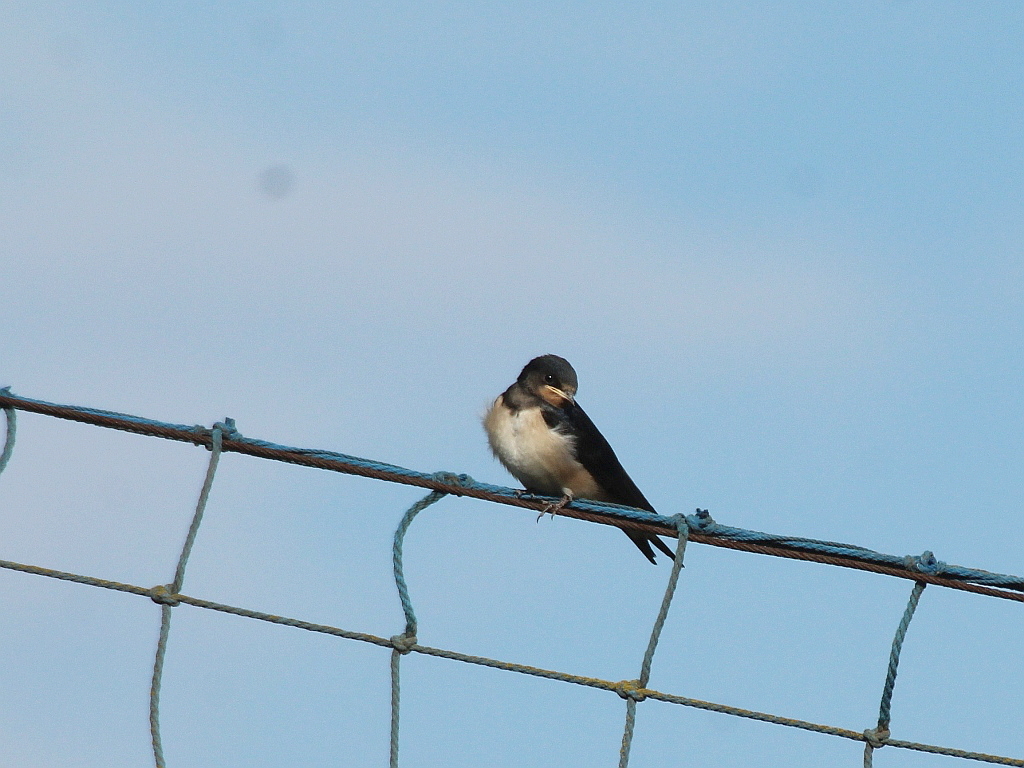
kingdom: Animalia
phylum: Chordata
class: Aves
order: Passeriformes
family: Hirundinidae
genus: Hirundo
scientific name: Hirundo rustica
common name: Barn swallow
